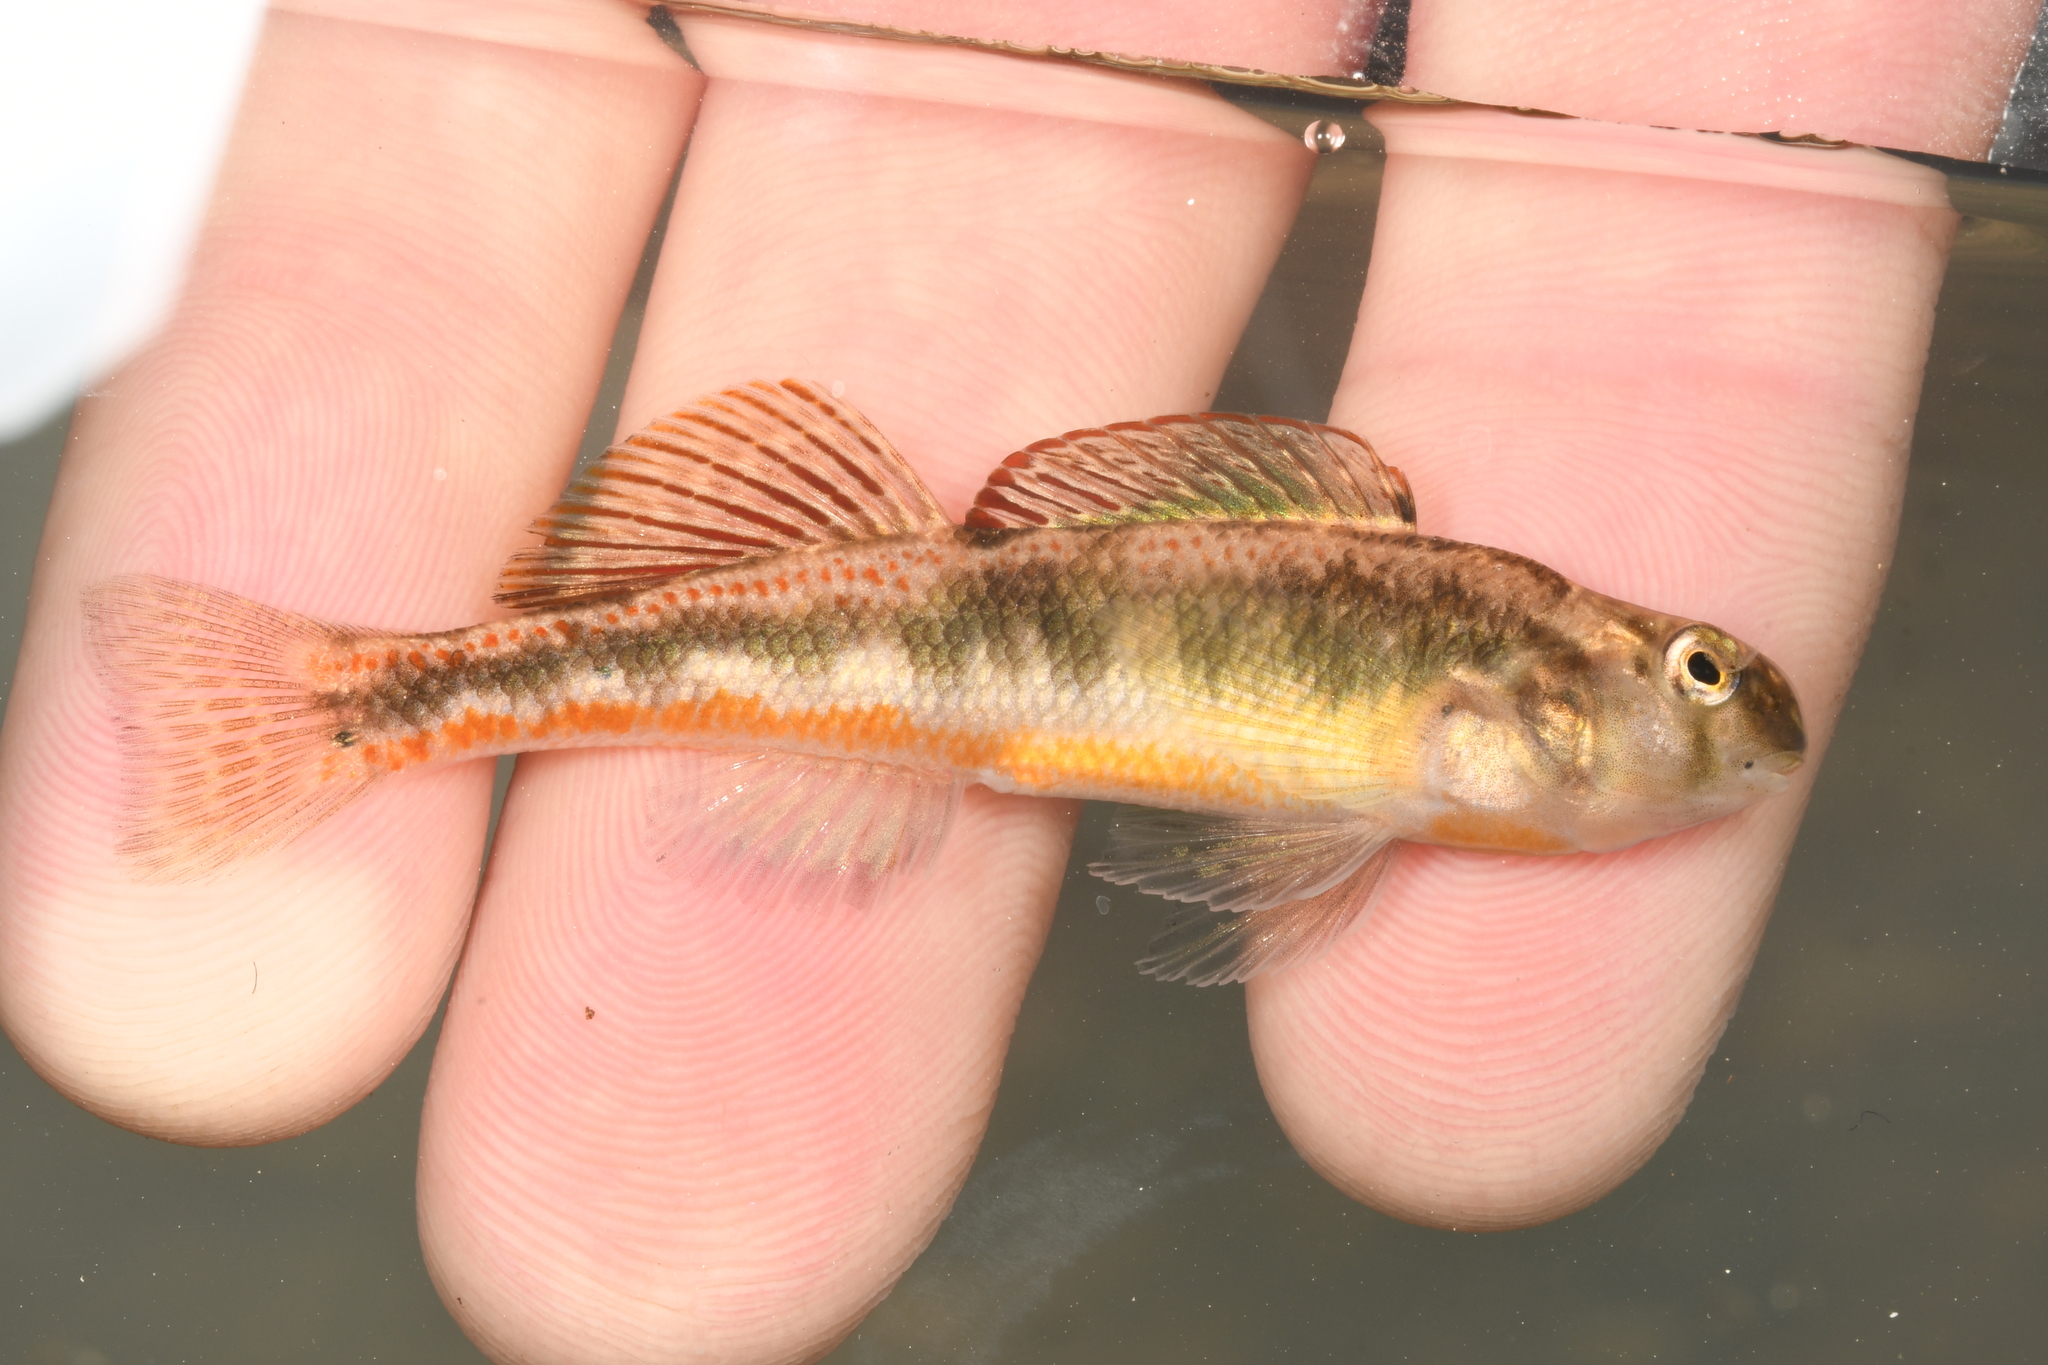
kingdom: Animalia
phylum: Chordata
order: Perciformes
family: Percidae
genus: Etheostoma
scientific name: Etheostoma simoterum
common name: Snubnose darter
